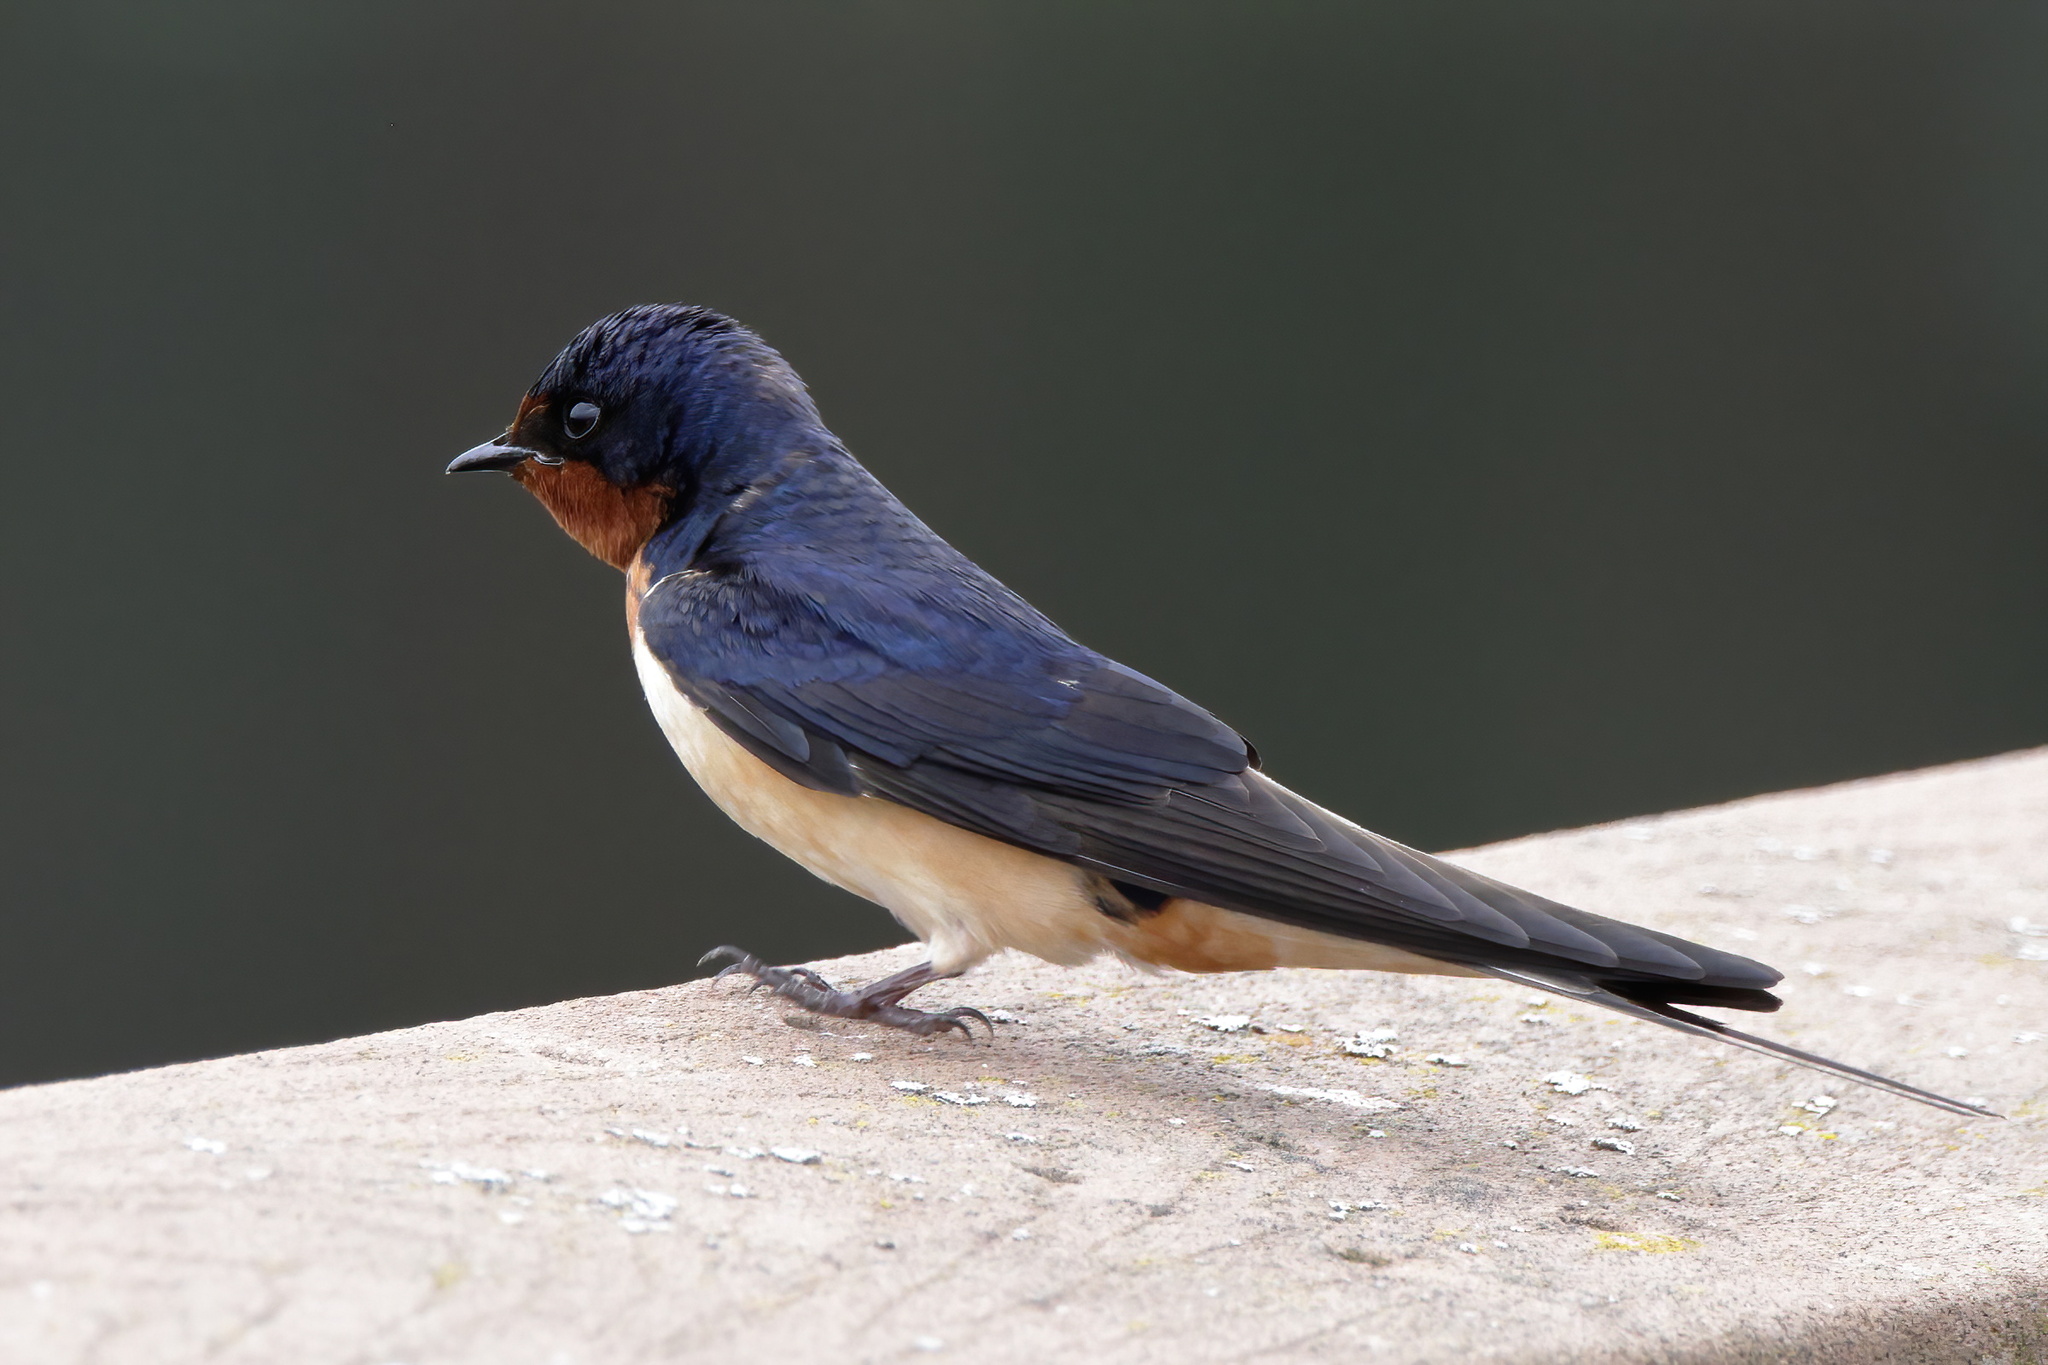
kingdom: Animalia
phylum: Chordata
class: Aves
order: Passeriformes
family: Hirundinidae
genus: Hirundo
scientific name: Hirundo rustica
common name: Barn swallow
